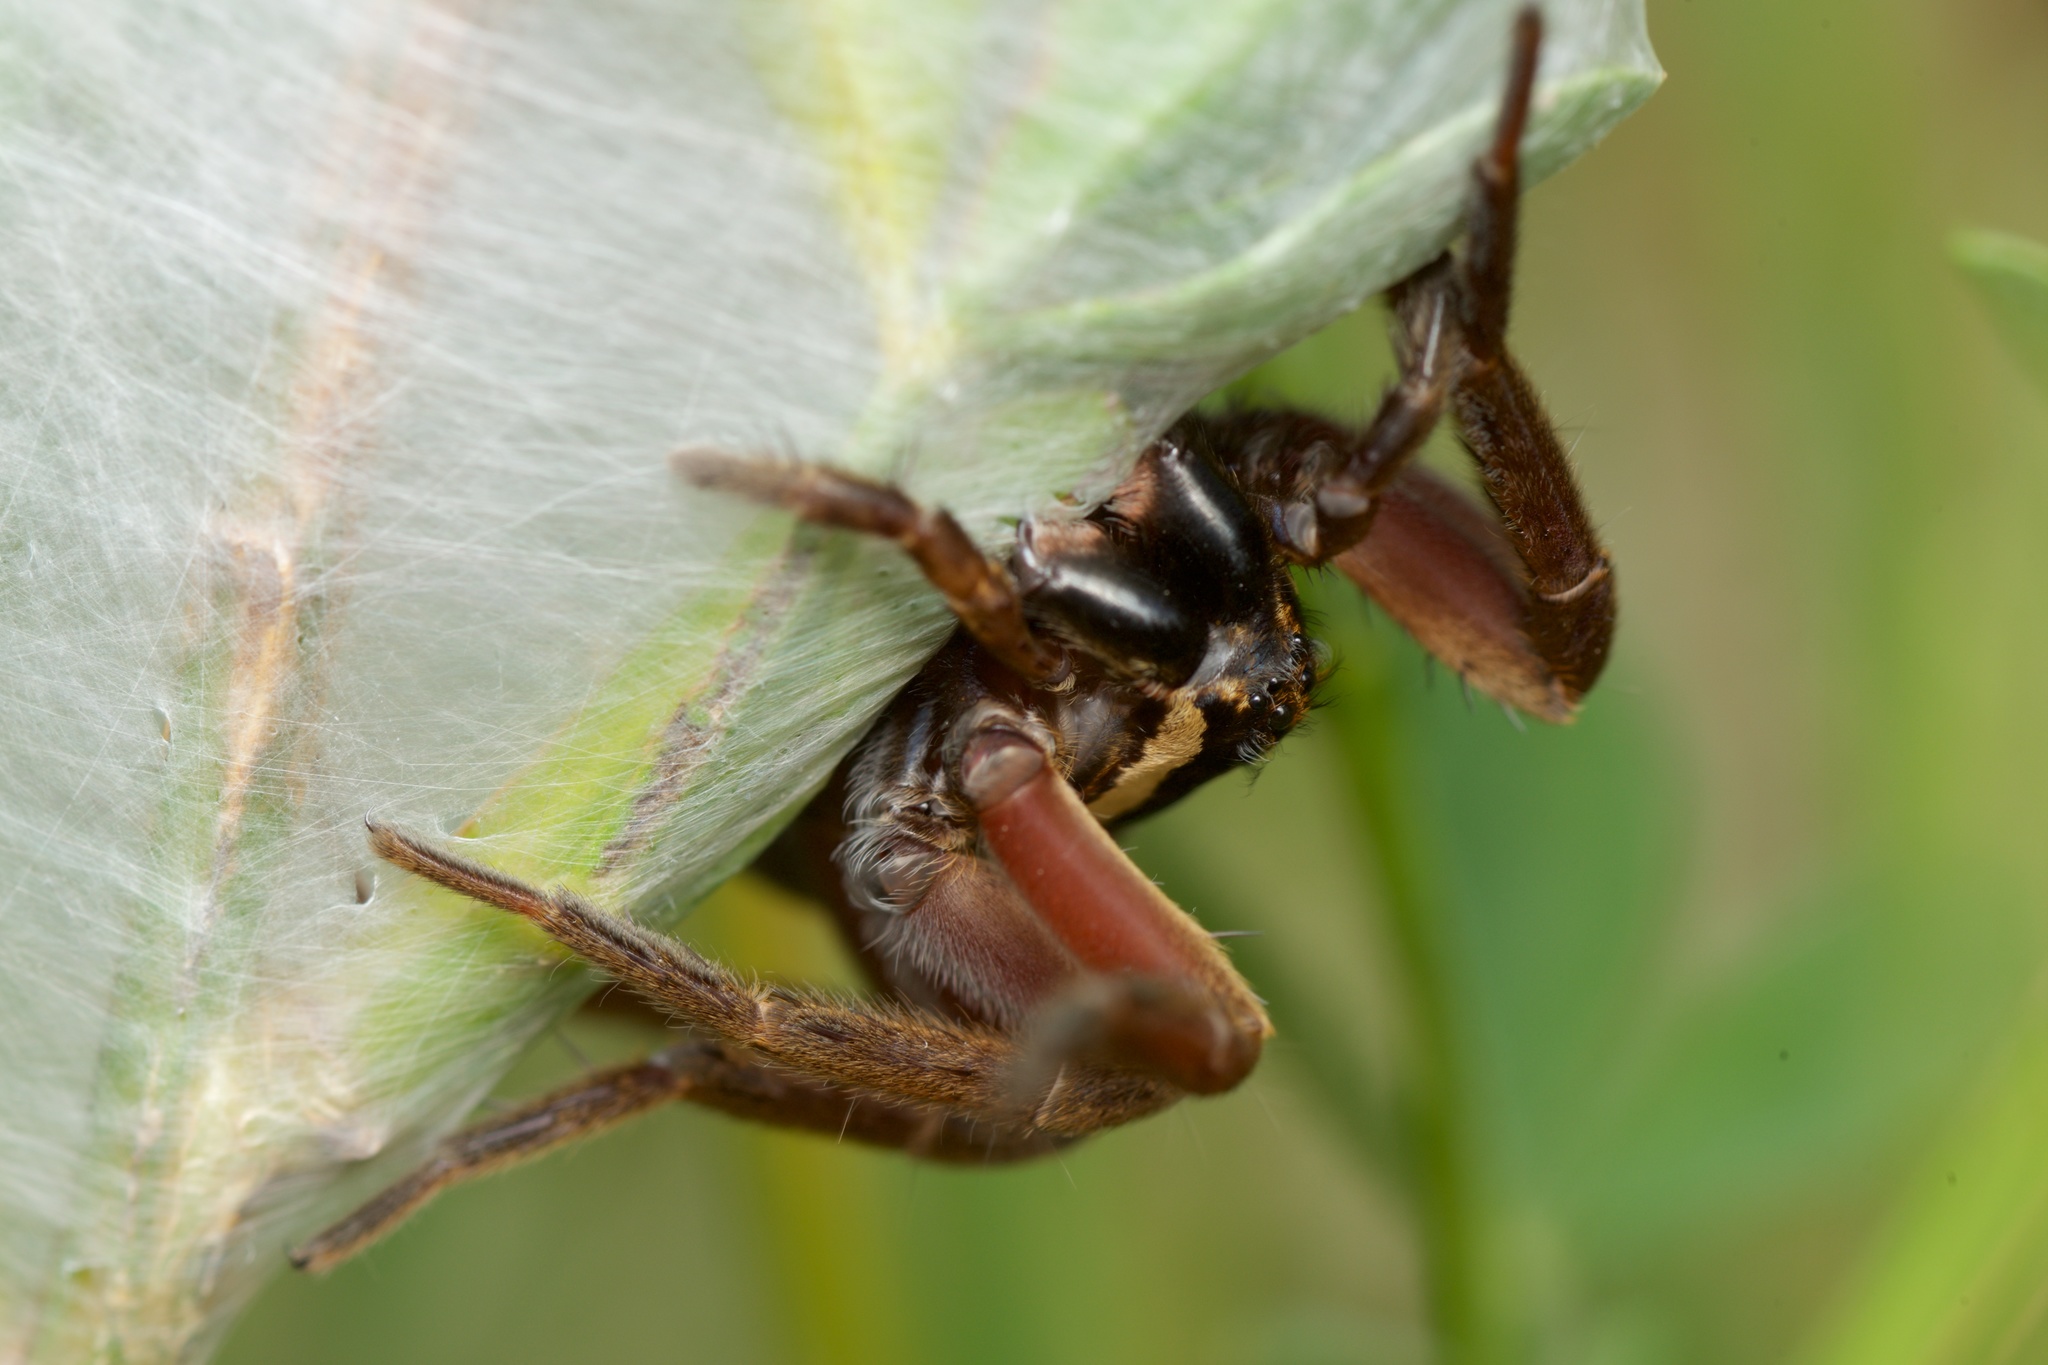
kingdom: Animalia
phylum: Arthropoda
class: Arachnida
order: Araneae
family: Pisauridae
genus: Dolomedes
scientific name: Dolomedes minor
